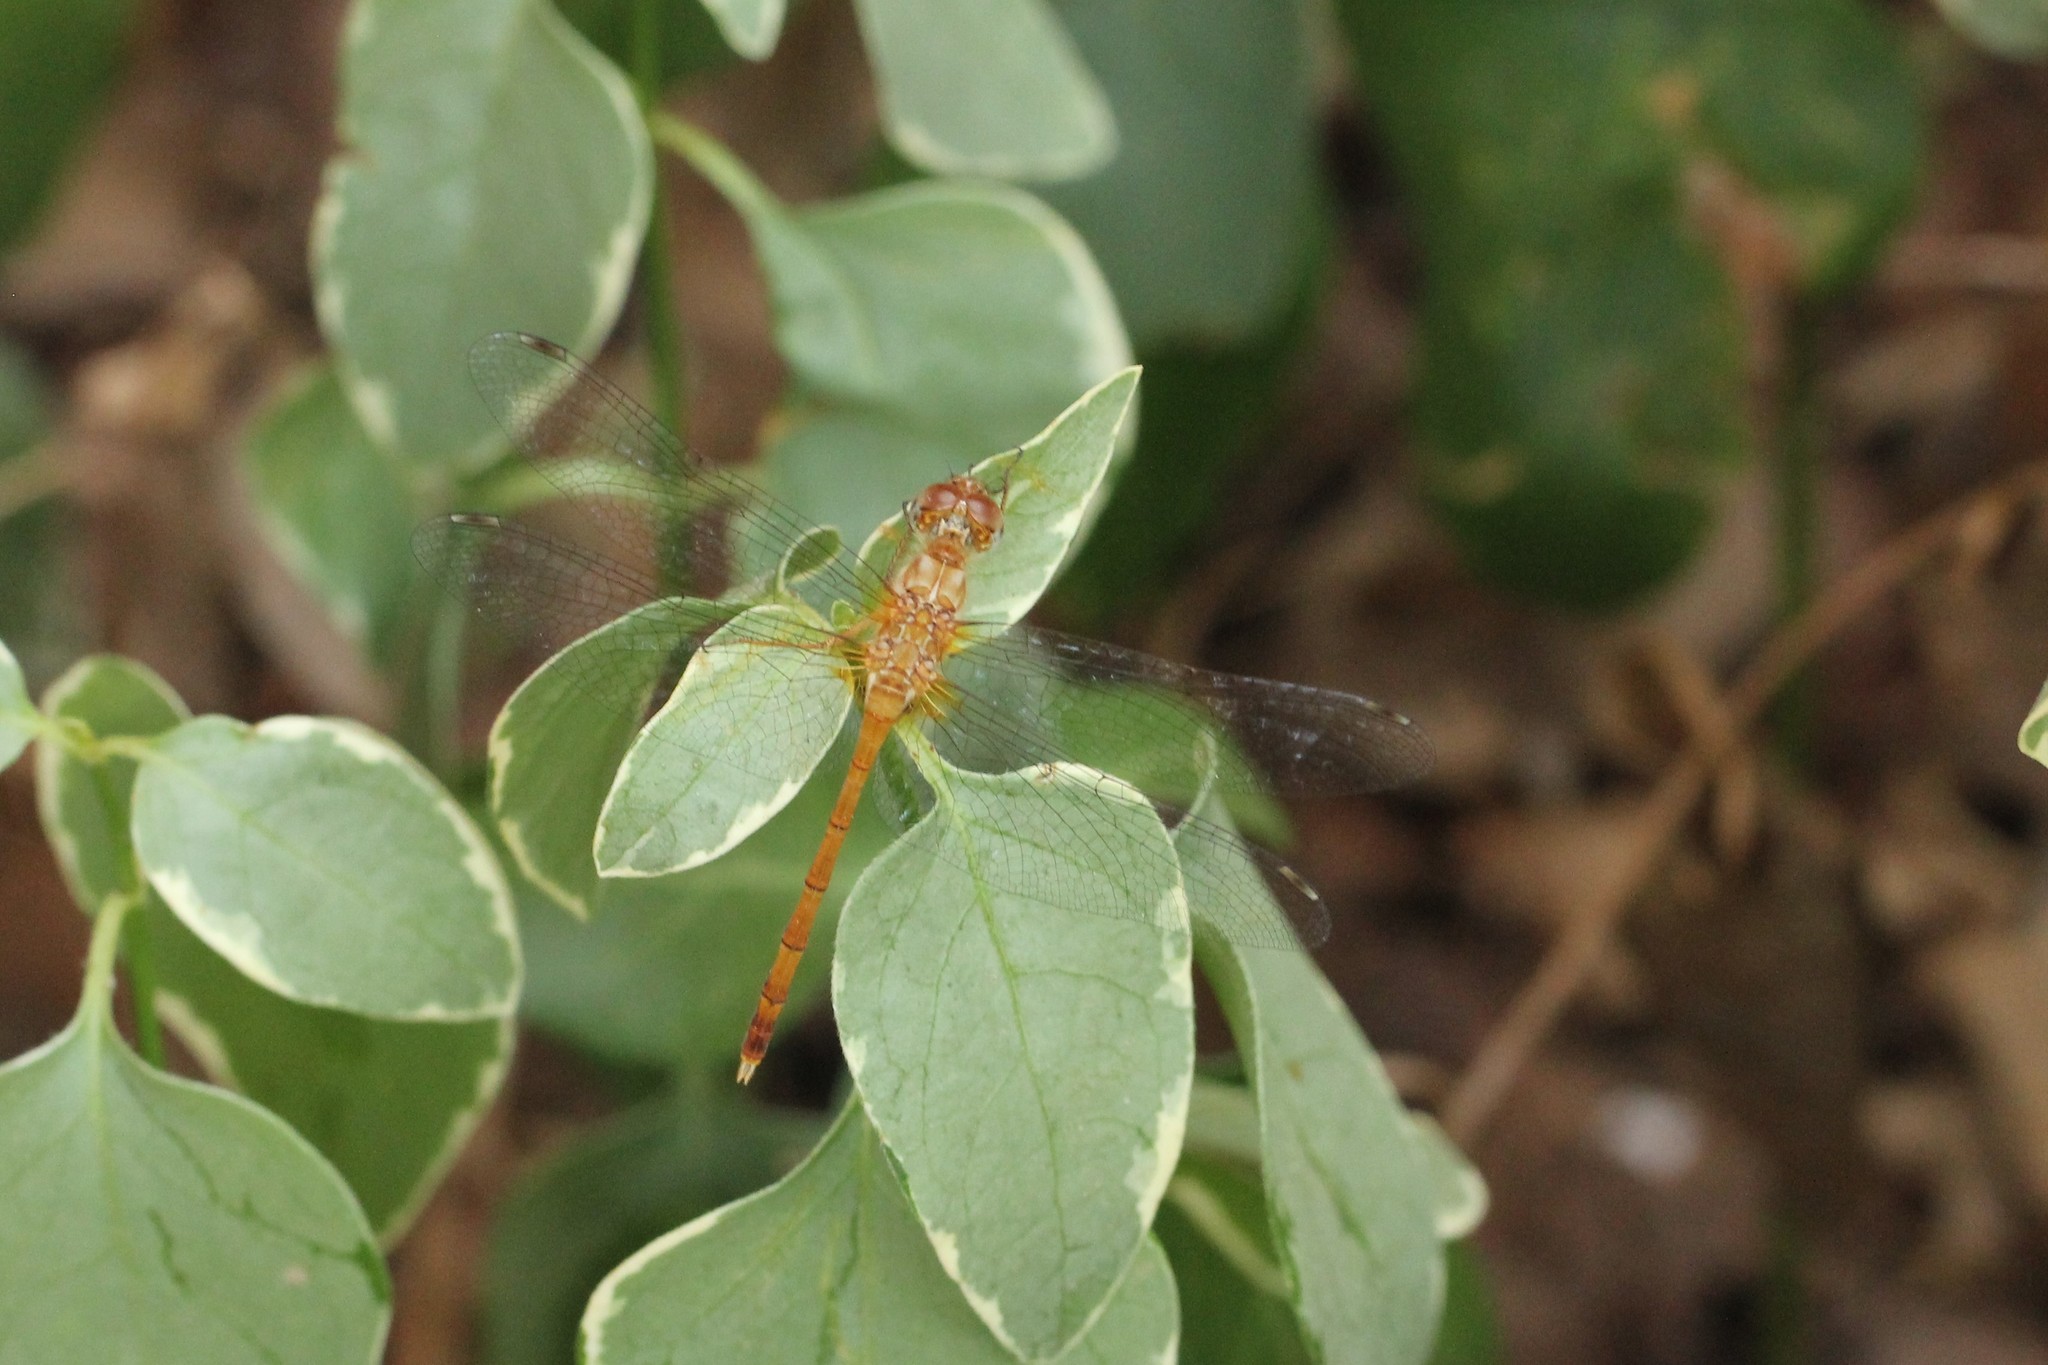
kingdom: Animalia
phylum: Arthropoda
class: Insecta
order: Odonata
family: Libellulidae
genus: Sympetrum
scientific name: Sympetrum vicinum
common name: Autumn meadowhawk
